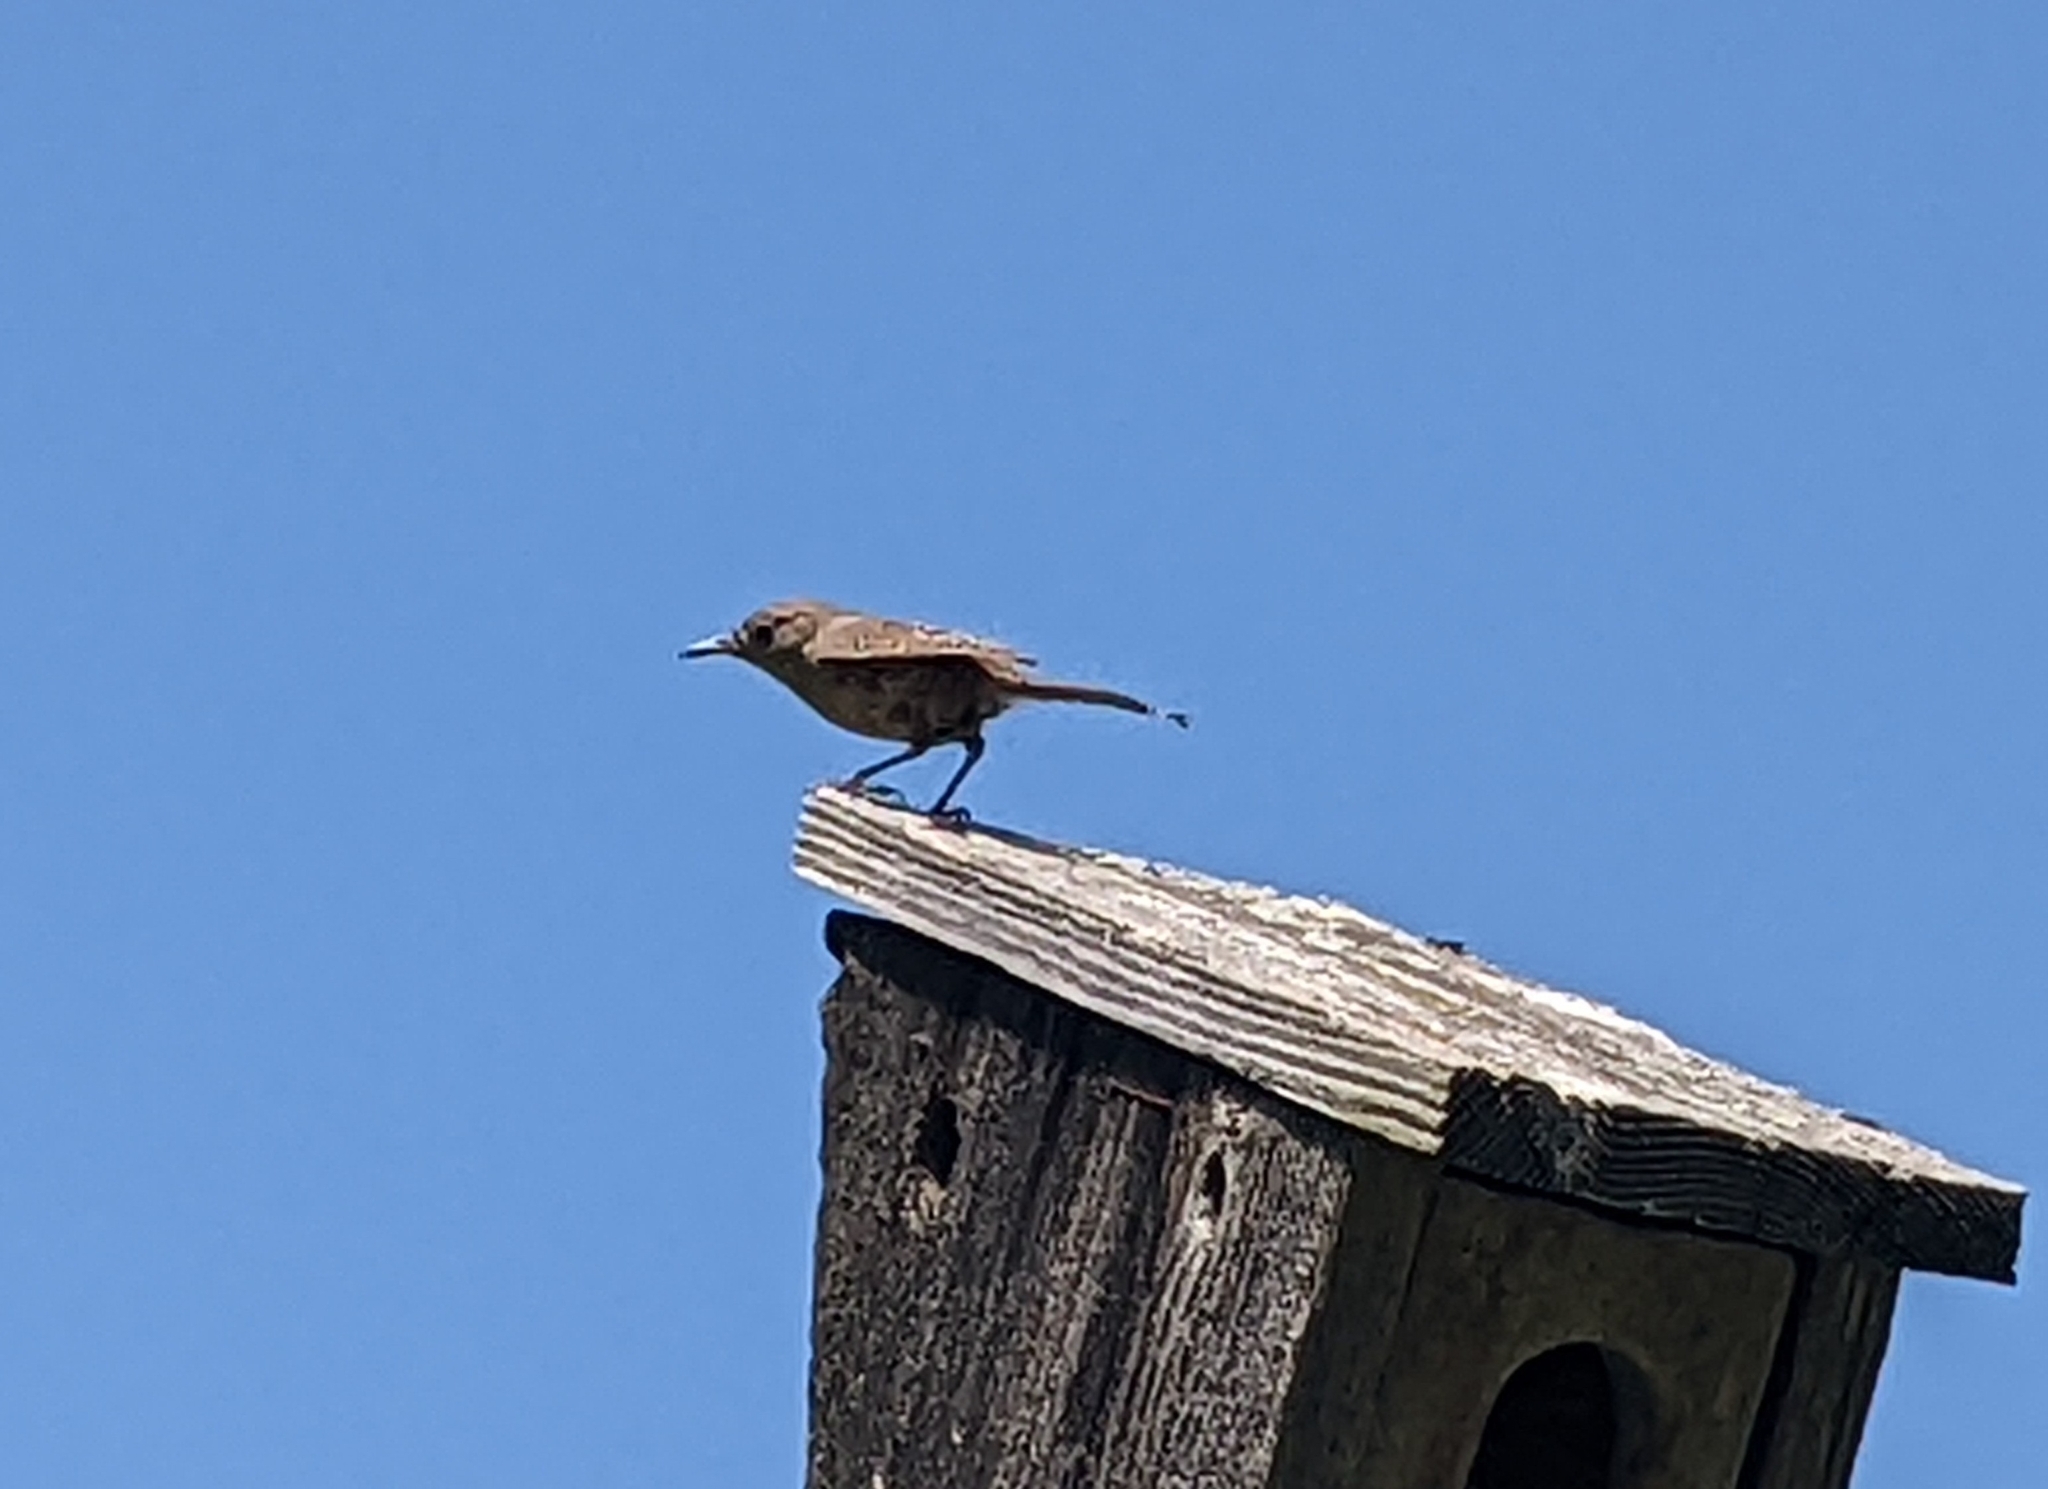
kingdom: Animalia
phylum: Chordata
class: Aves
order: Passeriformes
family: Troglodytidae
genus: Troglodytes
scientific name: Troglodytes aedon
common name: House wren
